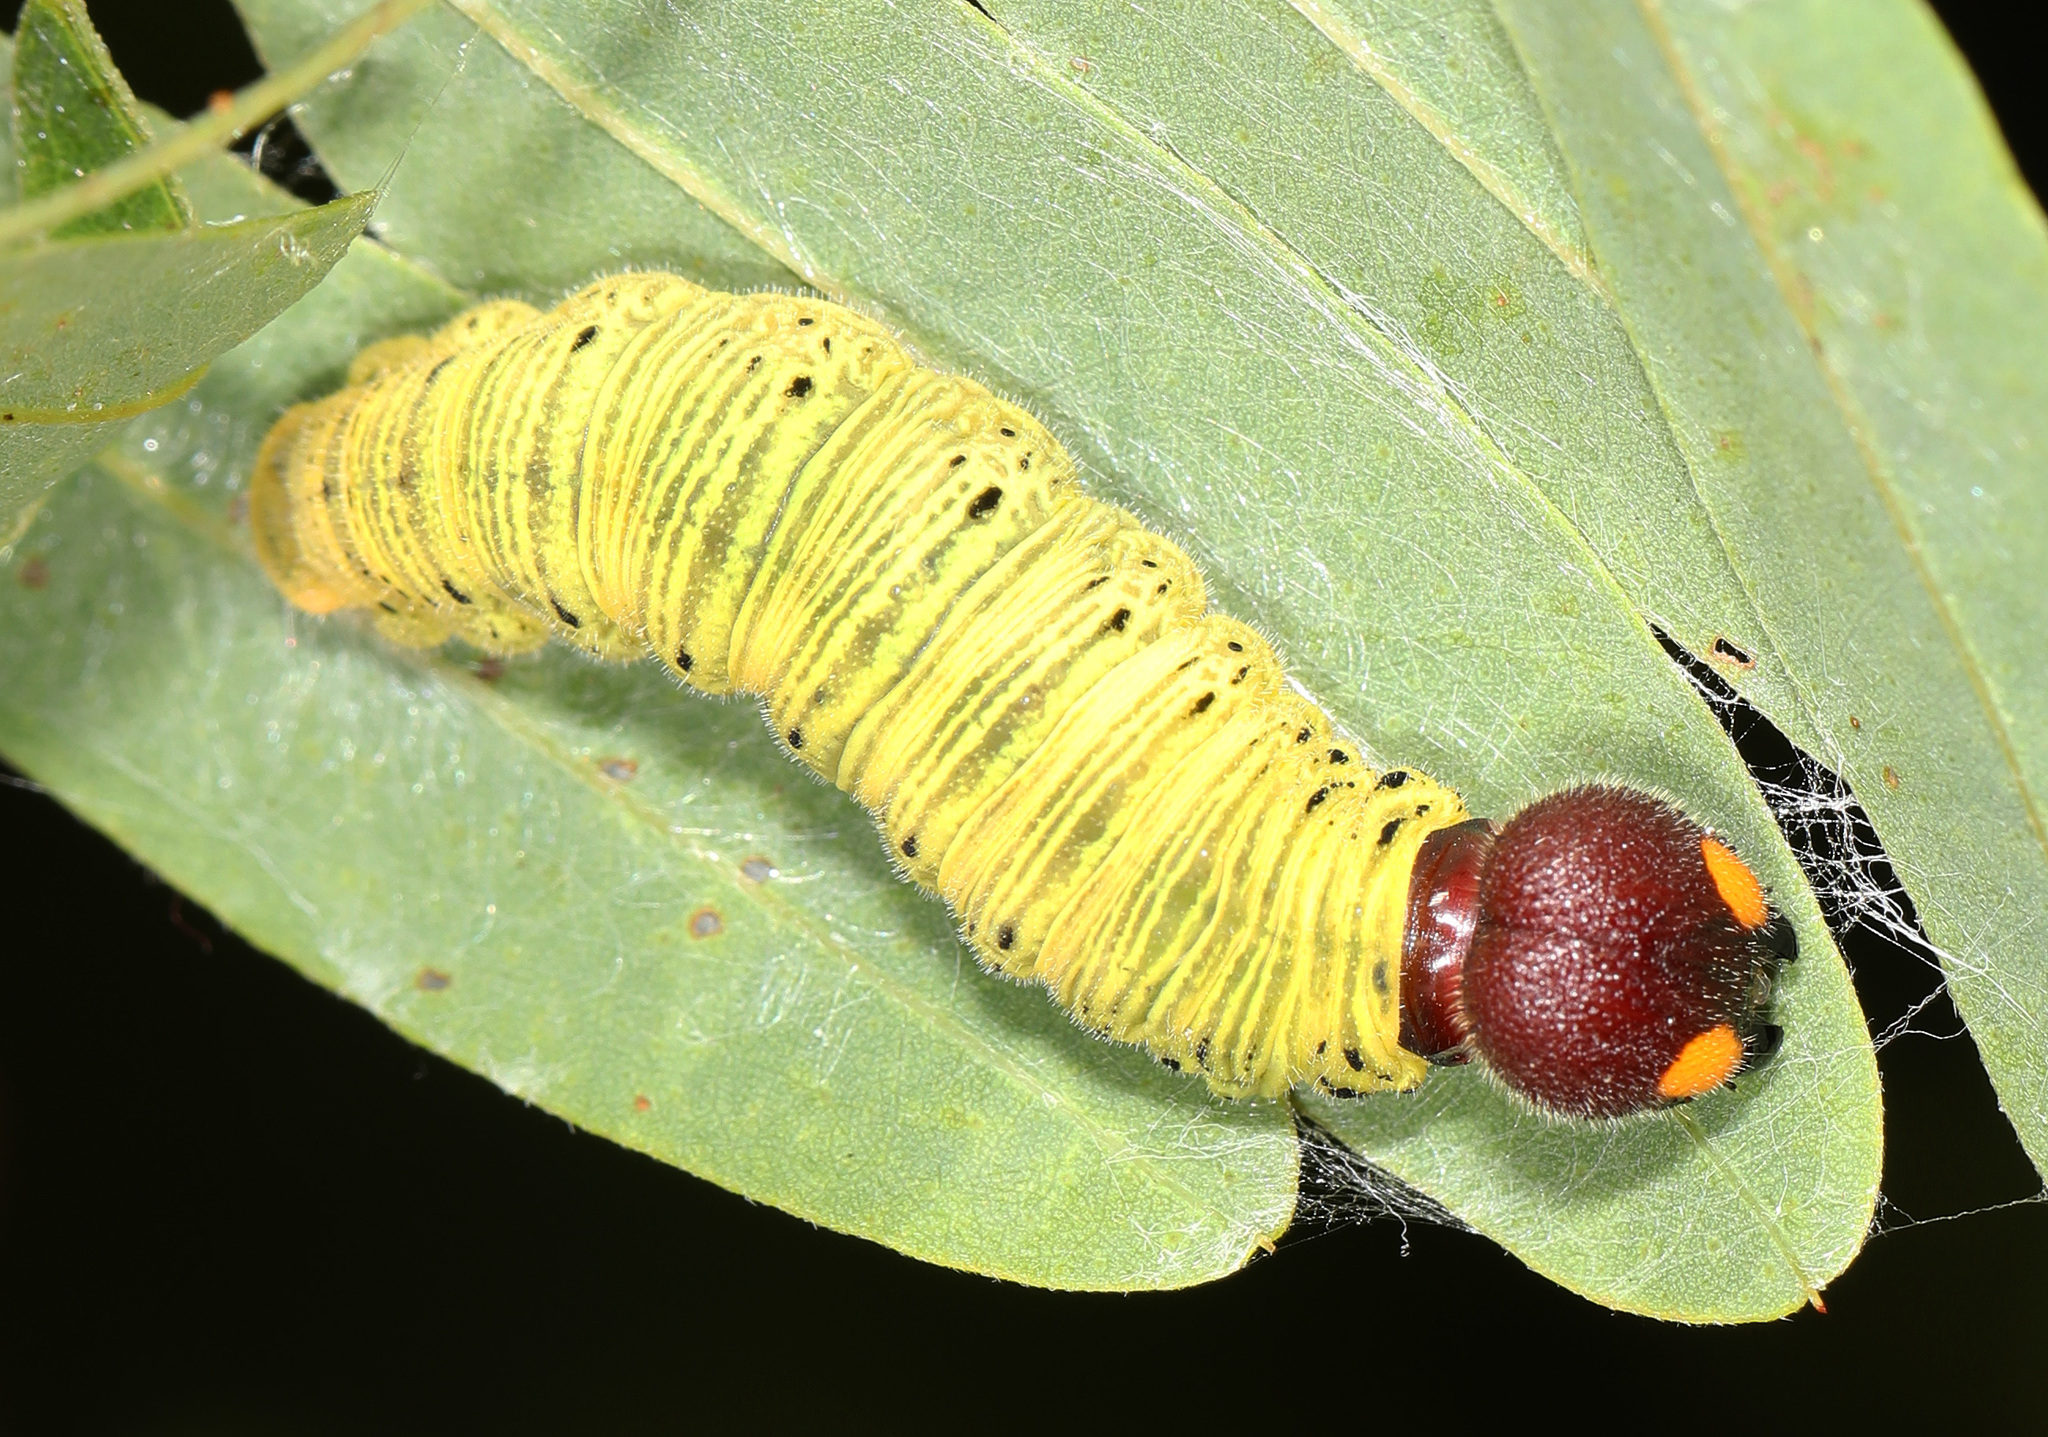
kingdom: Animalia
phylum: Arthropoda
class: Insecta
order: Lepidoptera
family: Hesperiidae
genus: Epargyreus
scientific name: Epargyreus clarus
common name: Silver-spotted skipper
